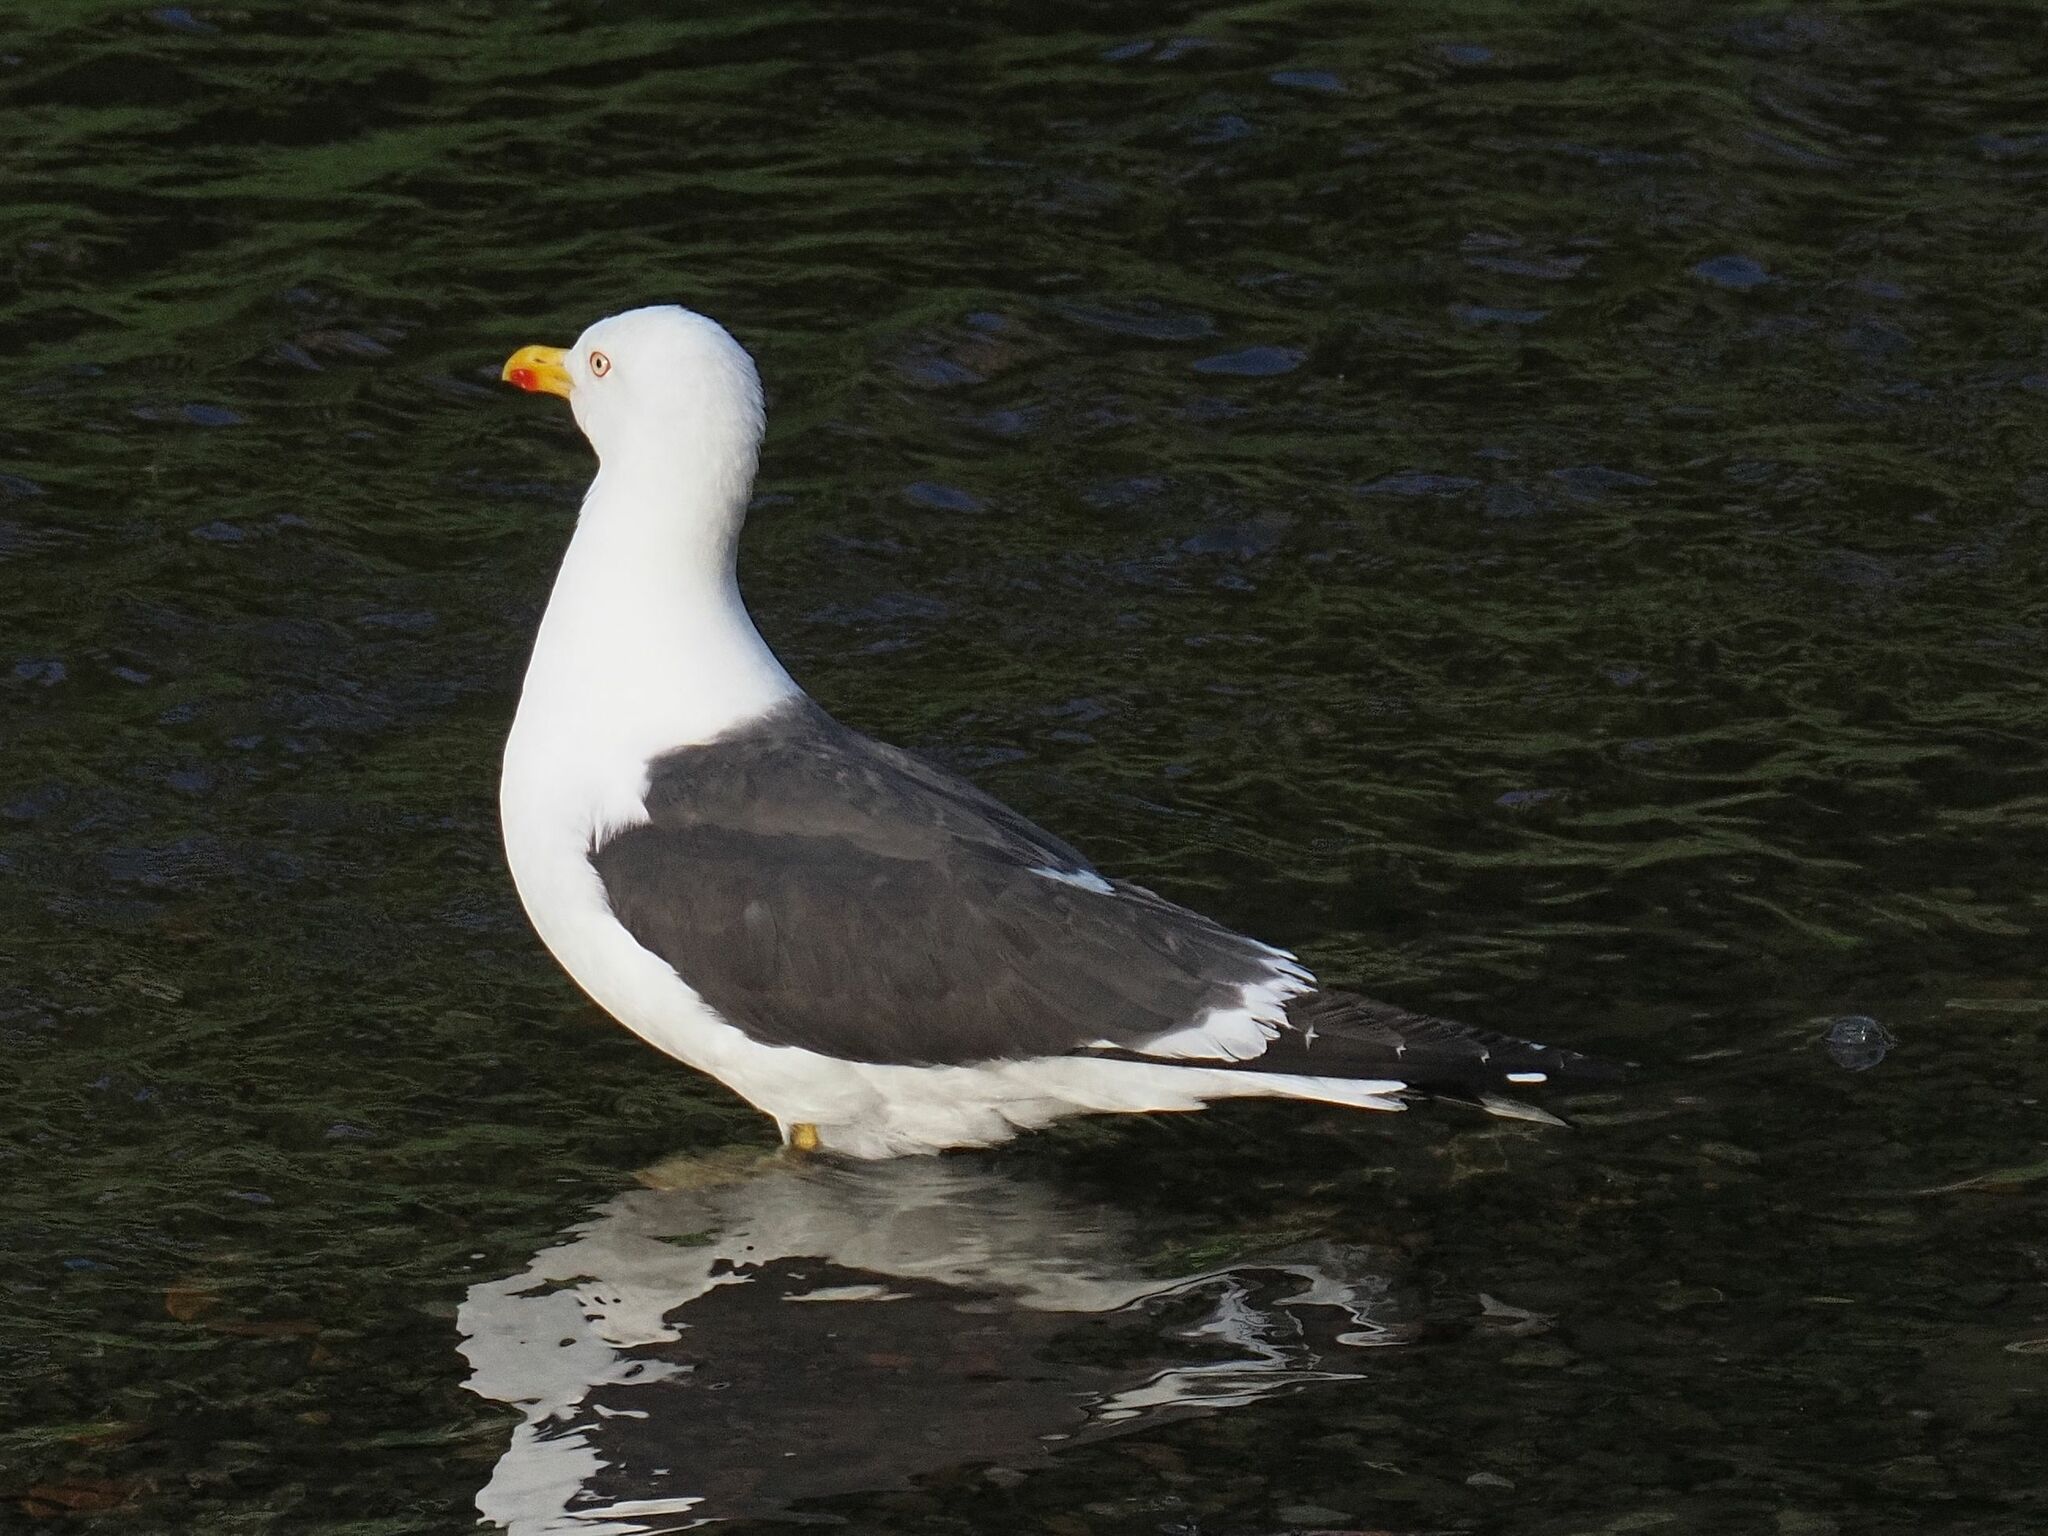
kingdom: Animalia
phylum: Chordata
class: Aves
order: Charadriiformes
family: Laridae
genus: Larus
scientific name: Larus fuscus
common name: Lesser black-backed gull
